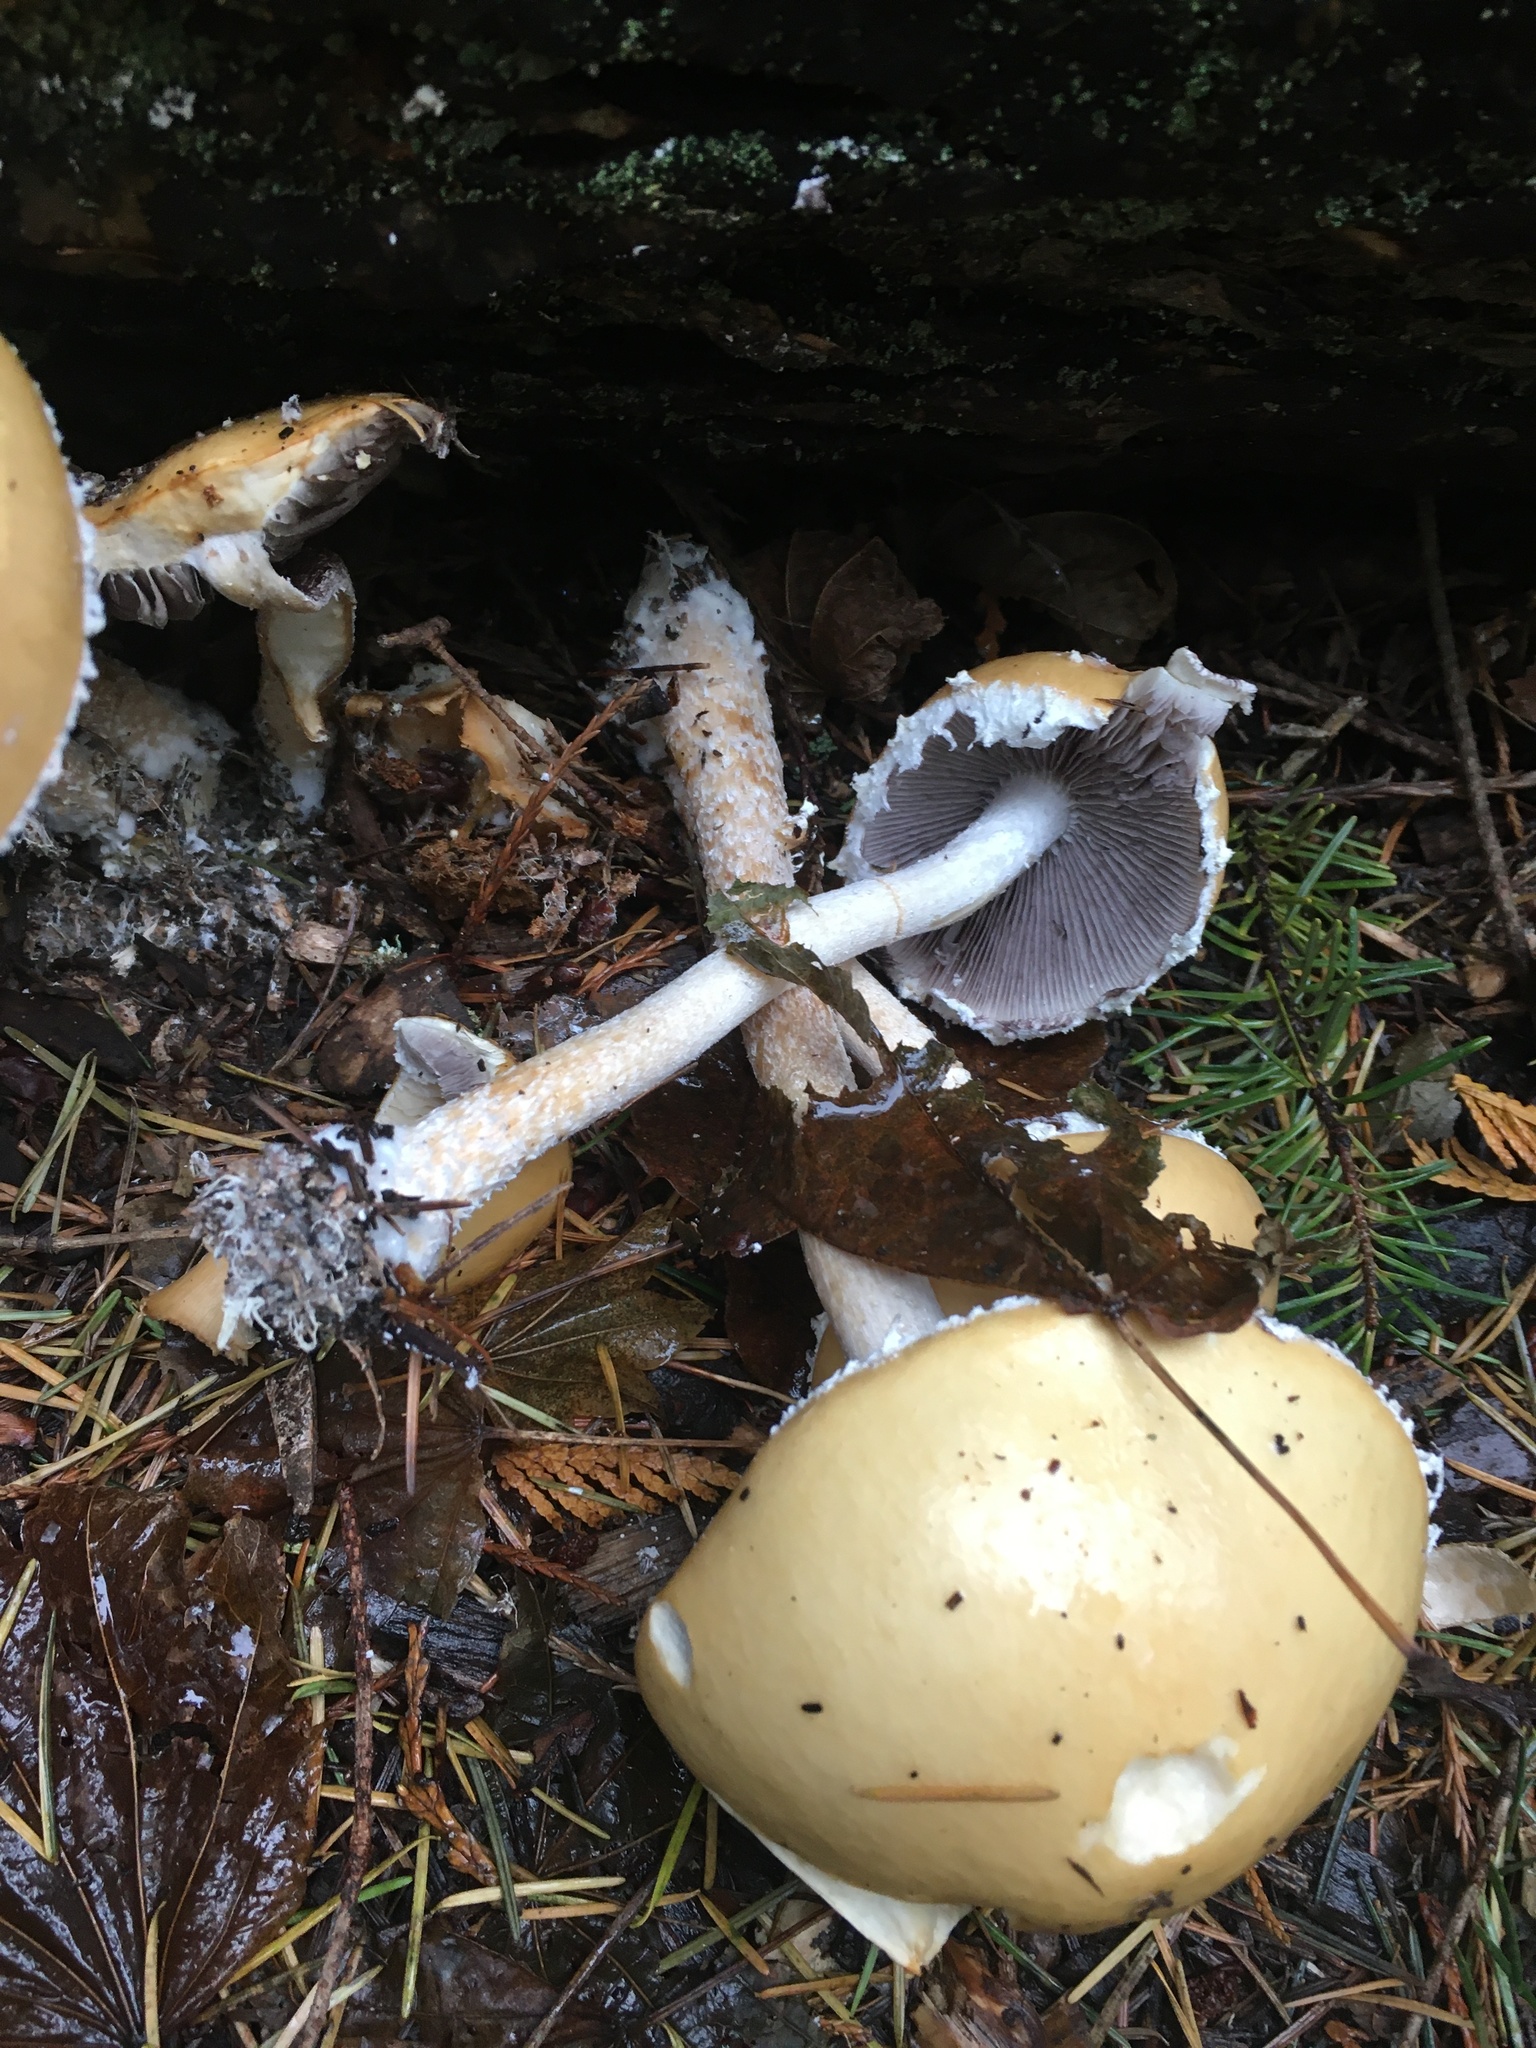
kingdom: Fungi
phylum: Basidiomycota
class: Agaricomycetes
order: Agaricales
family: Strophariaceae
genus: Stropharia
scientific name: Stropharia ambigua
